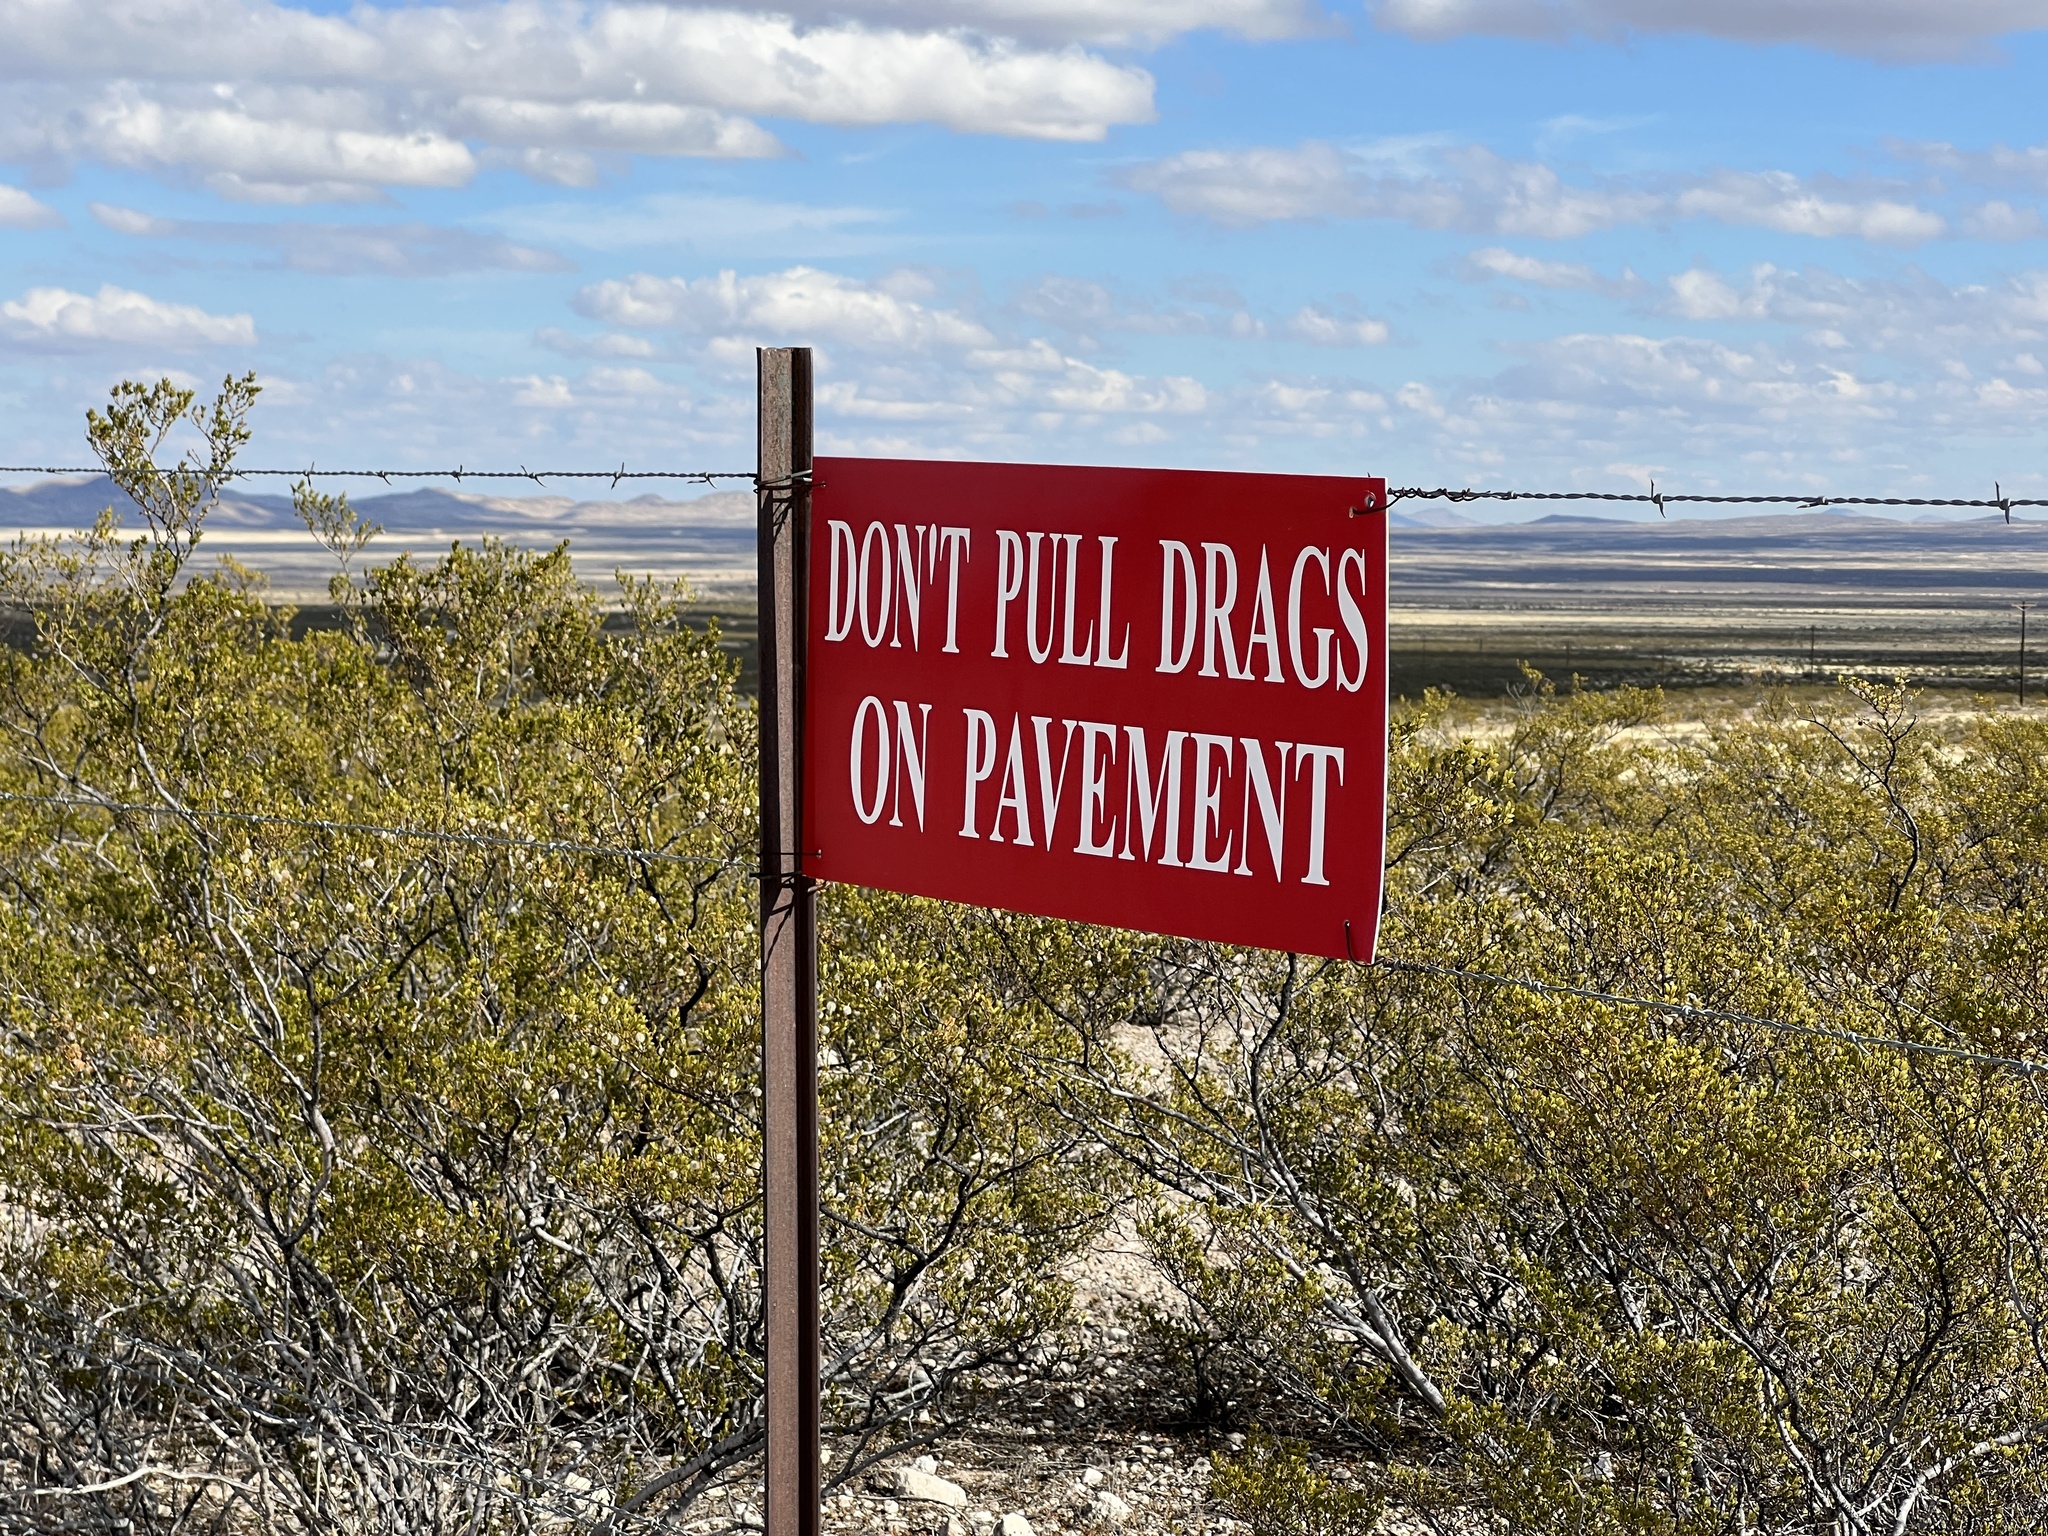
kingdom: Plantae
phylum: Tracheophyta
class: Magnoliopsida
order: Zygophyllales
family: Zygophyllaceae
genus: Larrea
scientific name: Larrea tridentata
